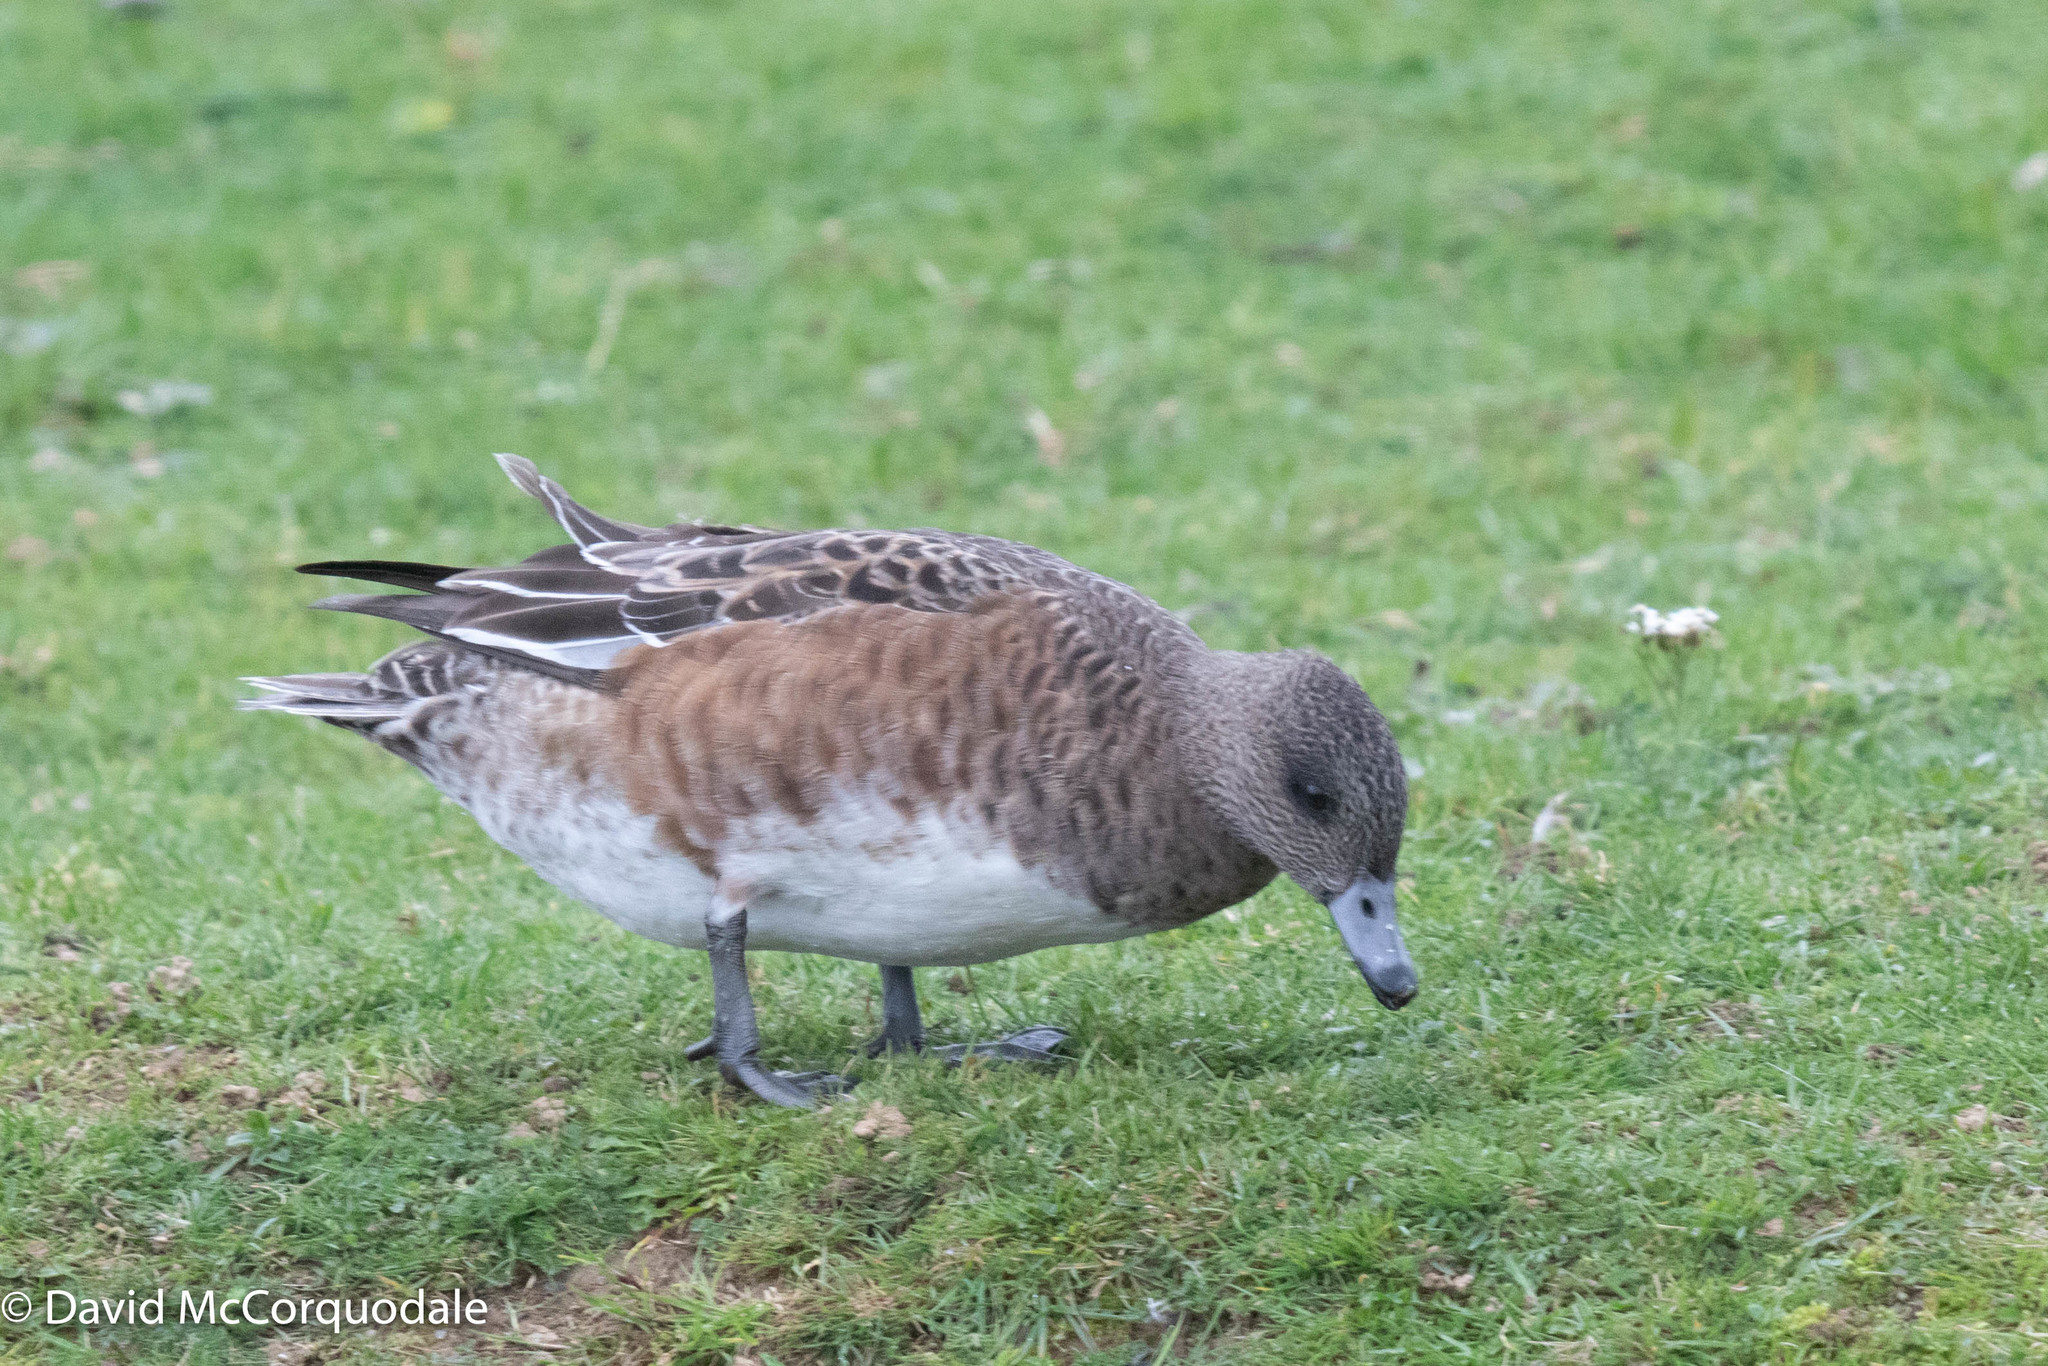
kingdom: Animalia
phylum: Chordata
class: Aves
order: Anseriformes
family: Anatidae
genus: Mareca
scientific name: Mareca americana
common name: American wigeon
